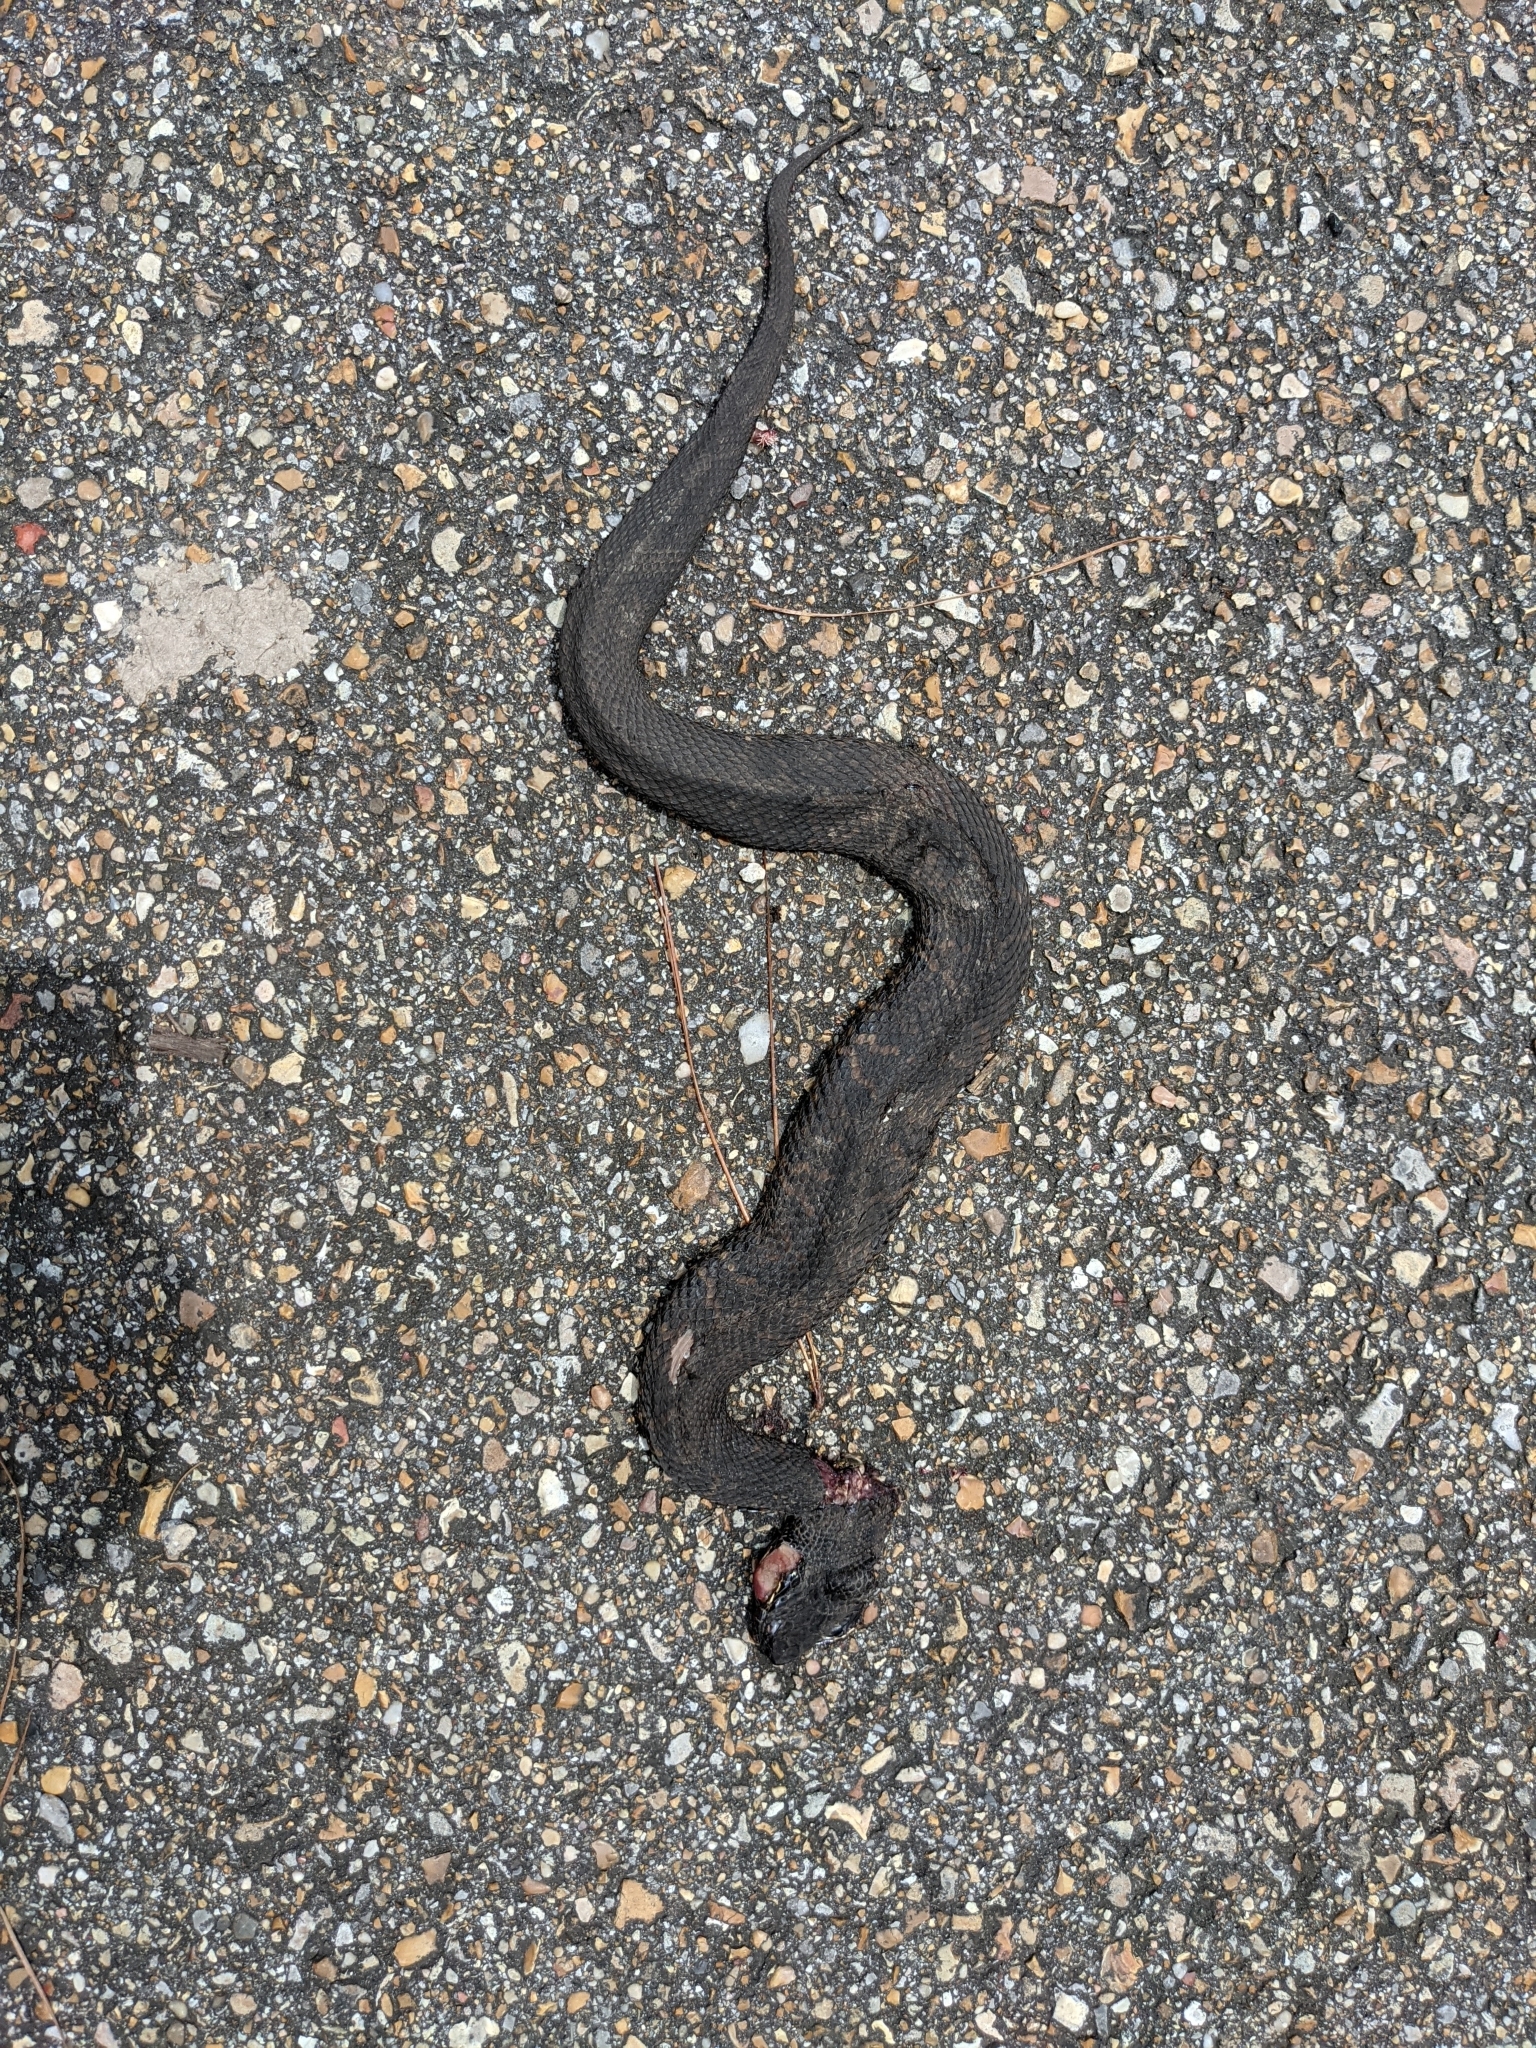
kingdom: Animalia
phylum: Chordata
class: Squamata
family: Viperidae
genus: Agkistrodon
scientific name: Agkistrodon piscivorus
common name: Cottonmouth
